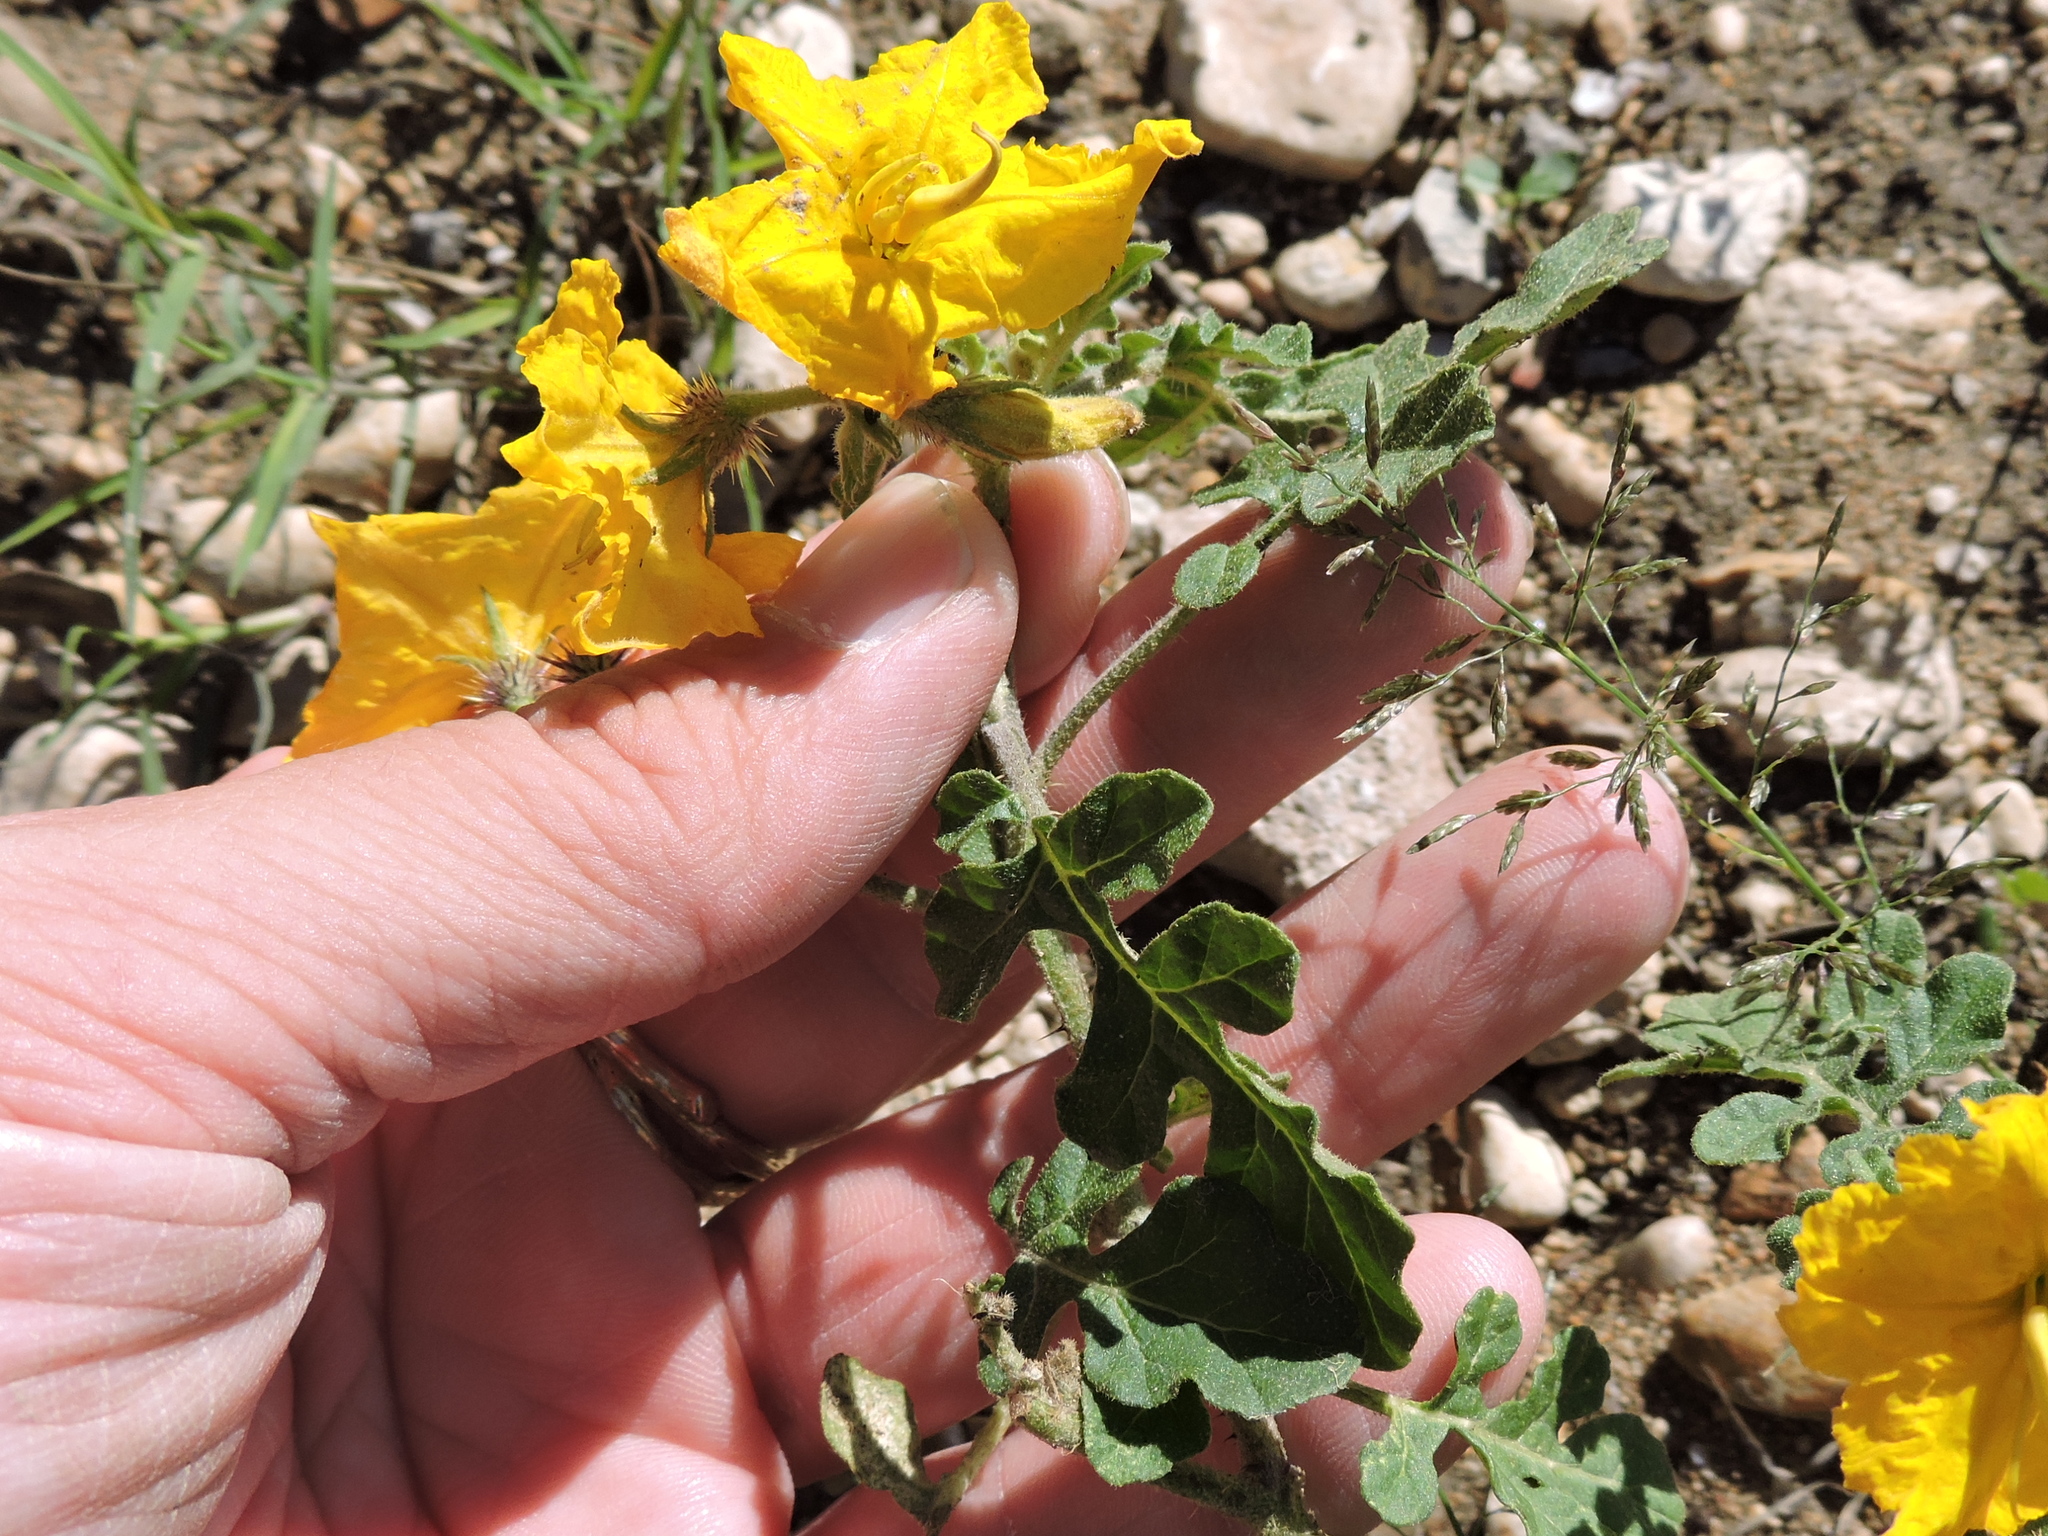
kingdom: Plantae
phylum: Tracheophyta
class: Magnoliopsida
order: Solanales
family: Solanaceae
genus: Solanum
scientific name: Solanum angustifolium
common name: Buffalobur nightshade
